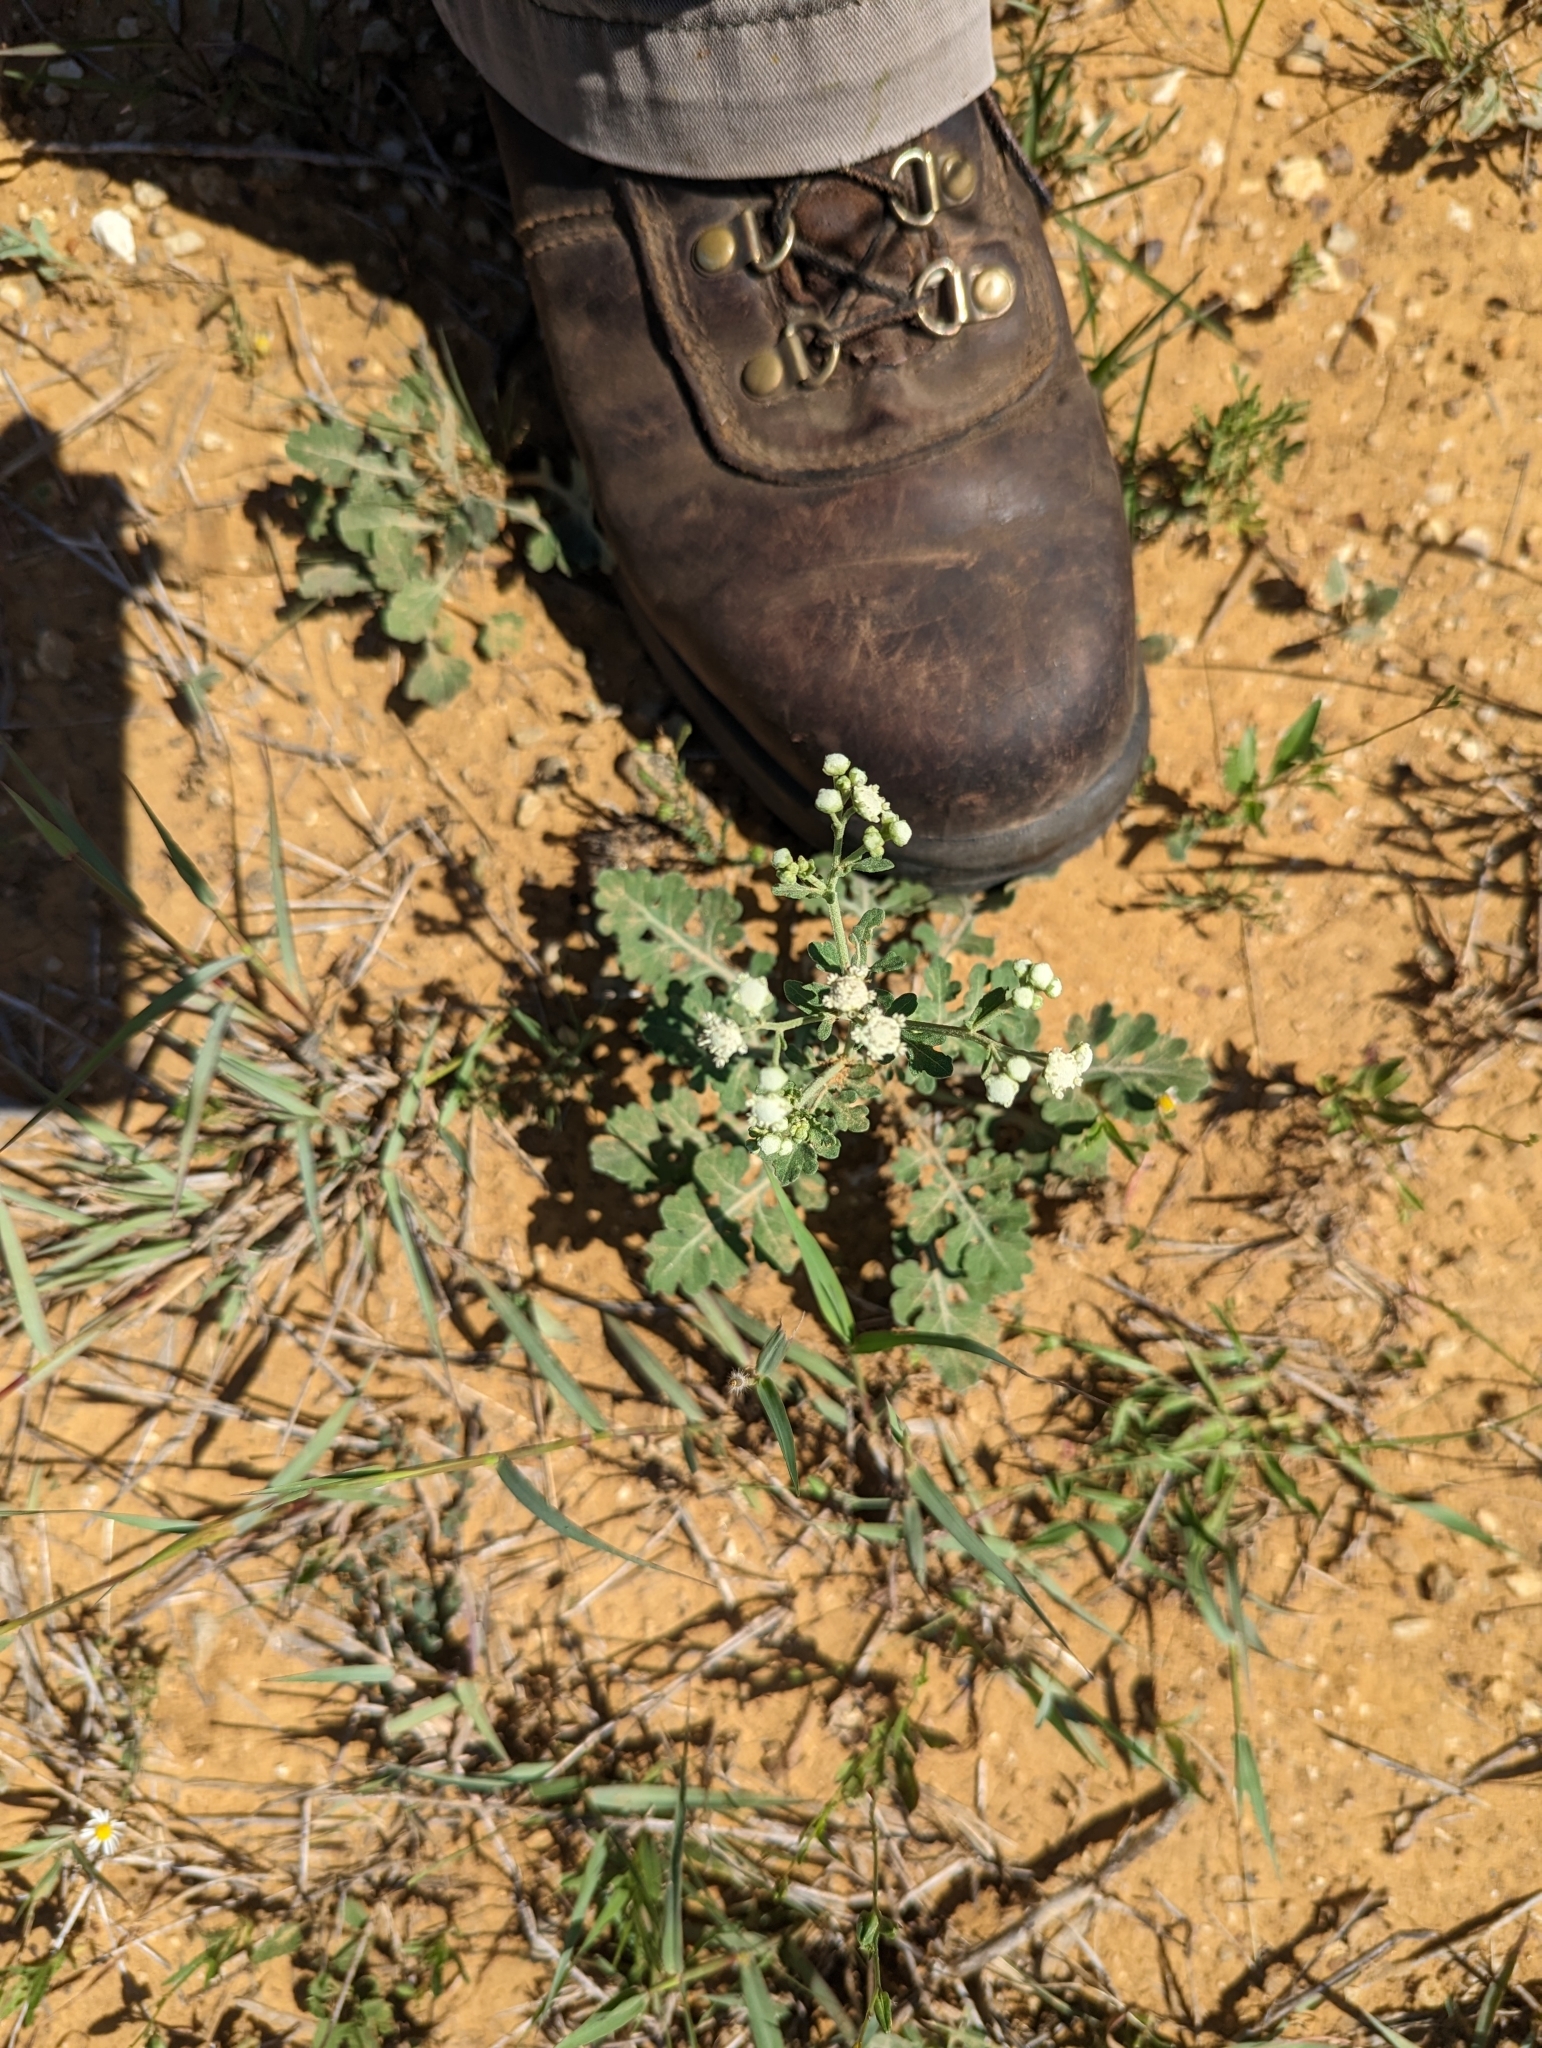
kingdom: Plantae
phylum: Tracheophyta
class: Magnoliopsida
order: Asterales
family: Asteraceae
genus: Parthenium
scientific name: Parthenium confertum
